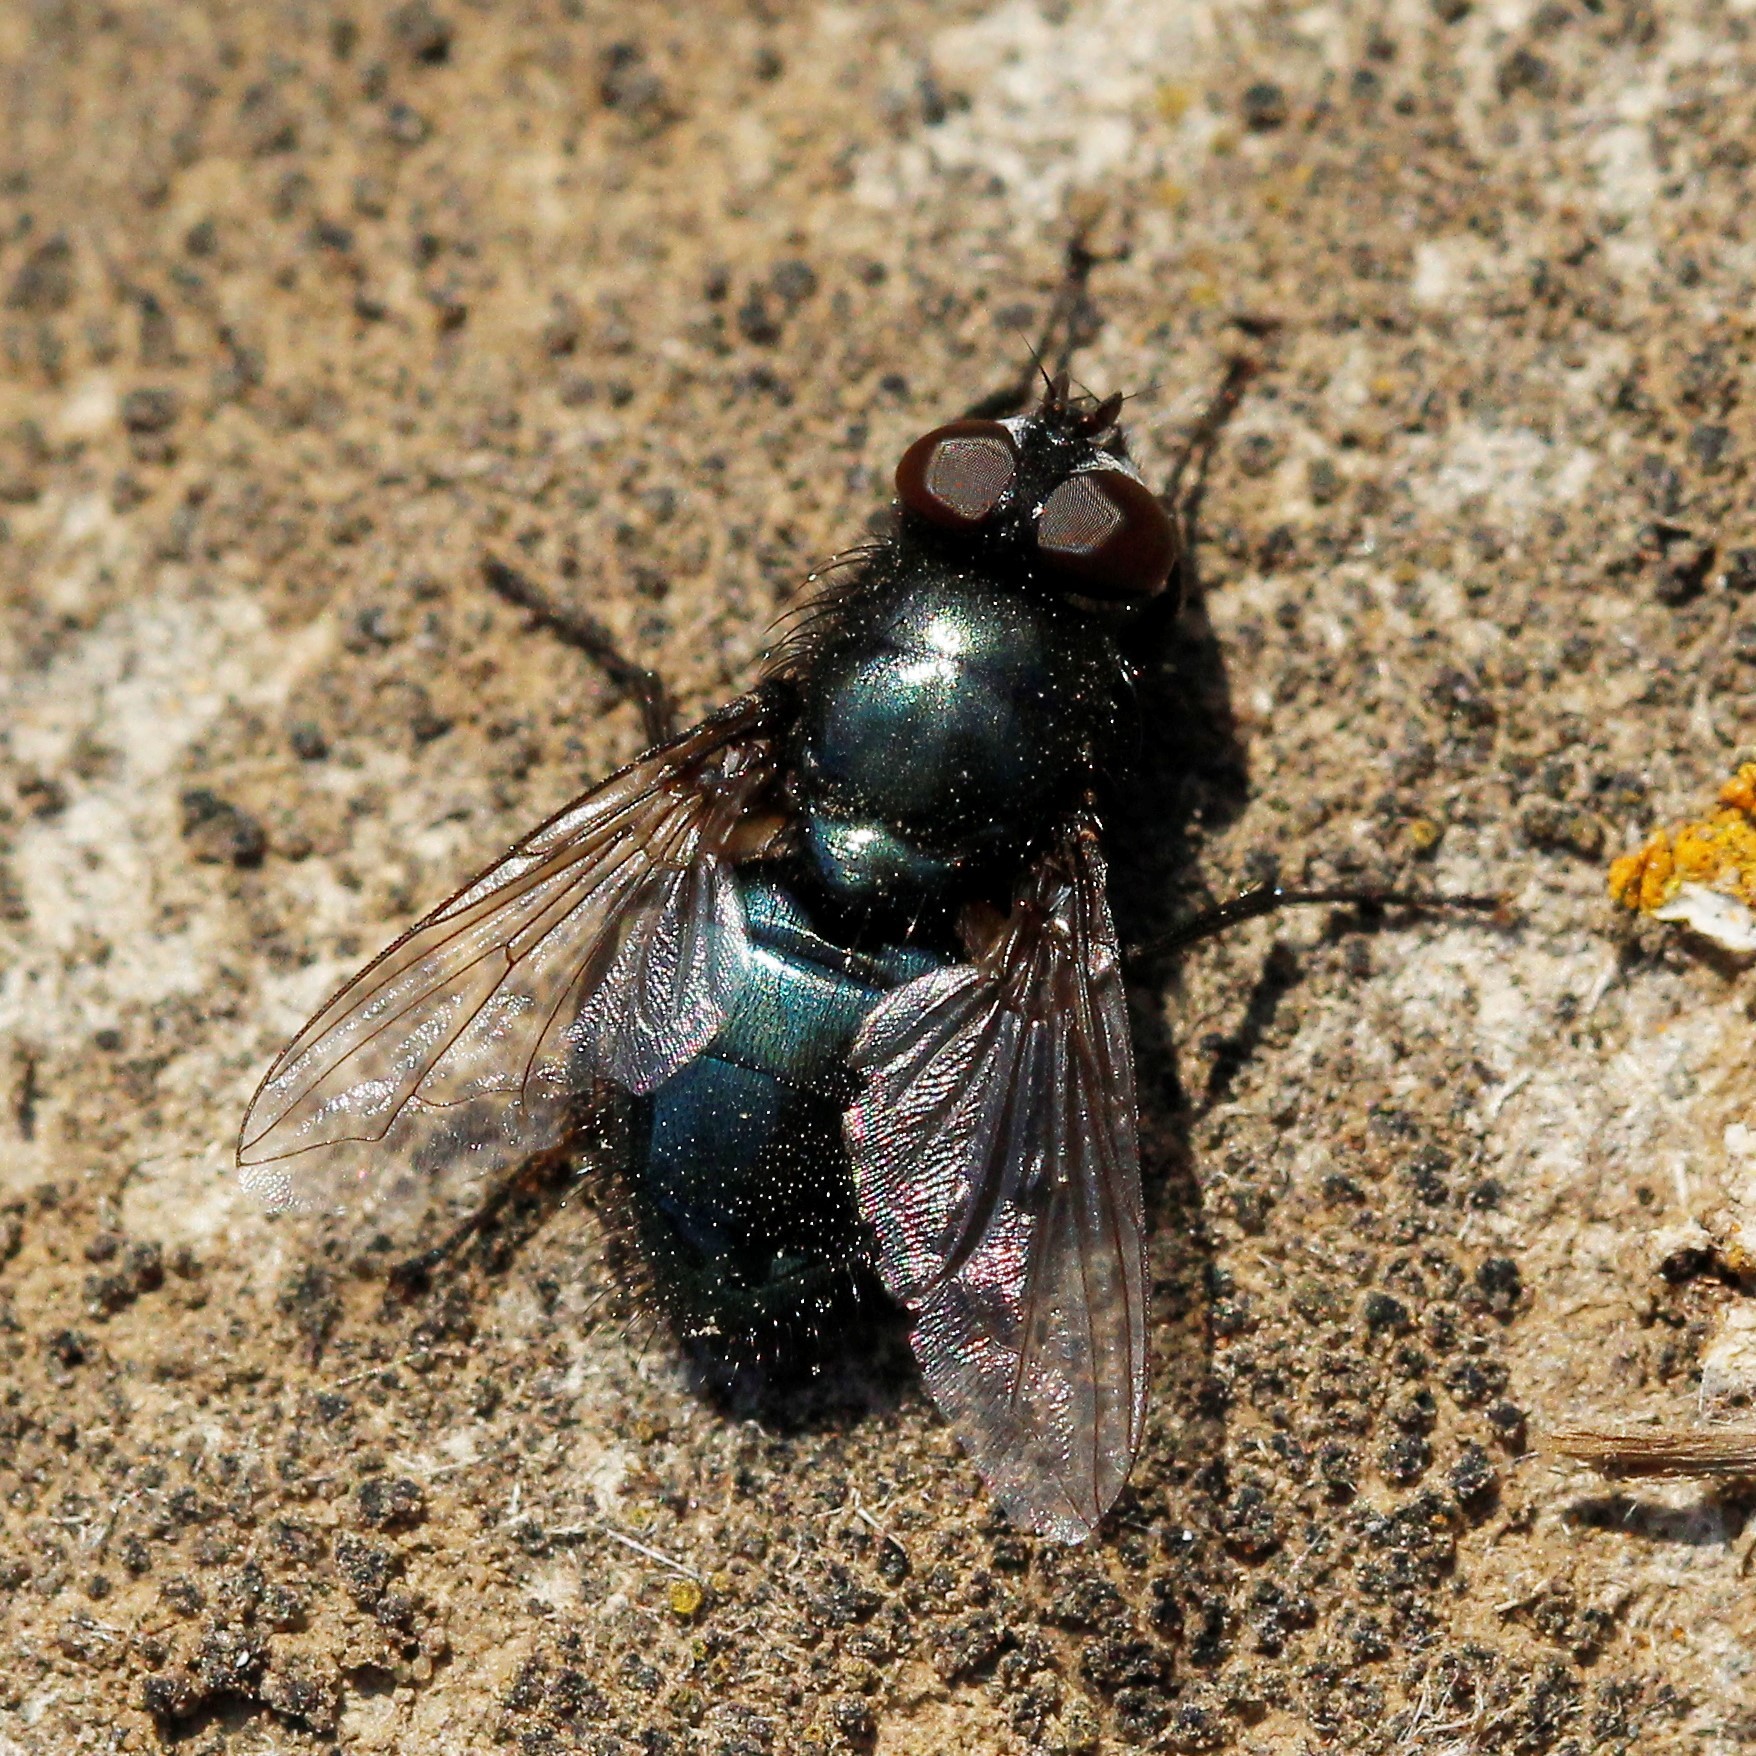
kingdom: Animalia
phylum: Arthropoda
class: Insecta
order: Diptera
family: Calliphoridae
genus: Protophormia
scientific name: Protophormia terraenovae
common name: Blackbottle
